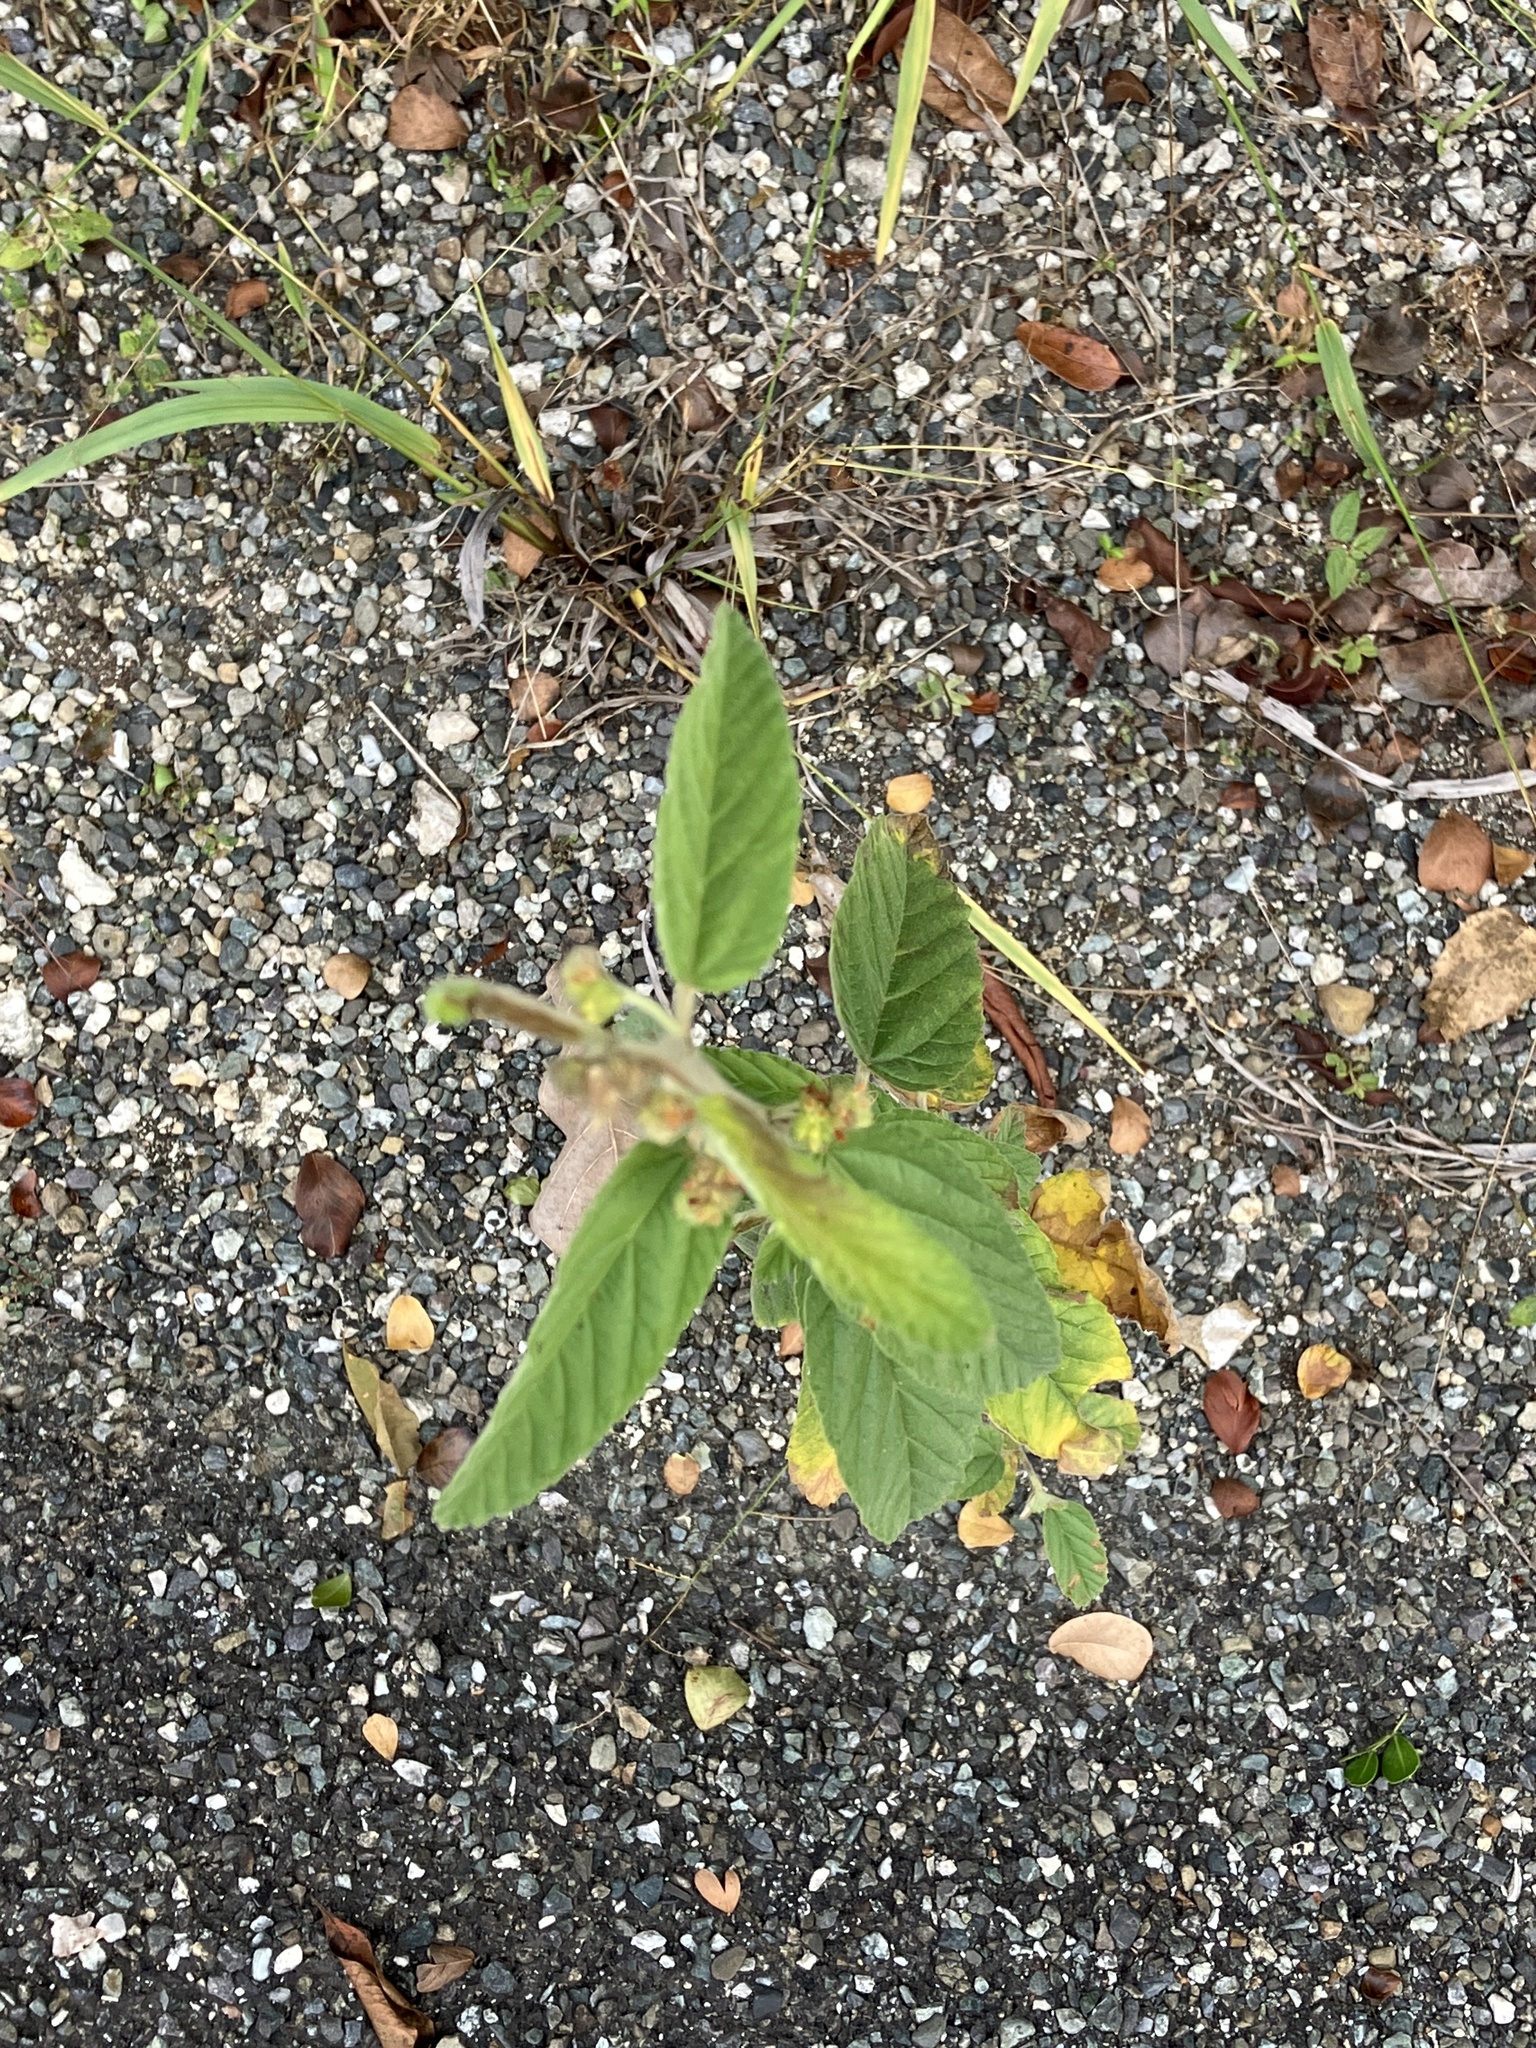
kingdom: Plantae
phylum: Tracheophyta
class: Magnoliopsida
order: Malvales
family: Malvaceae
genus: Waltheria
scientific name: Waltheria indica
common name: Leather-coat
